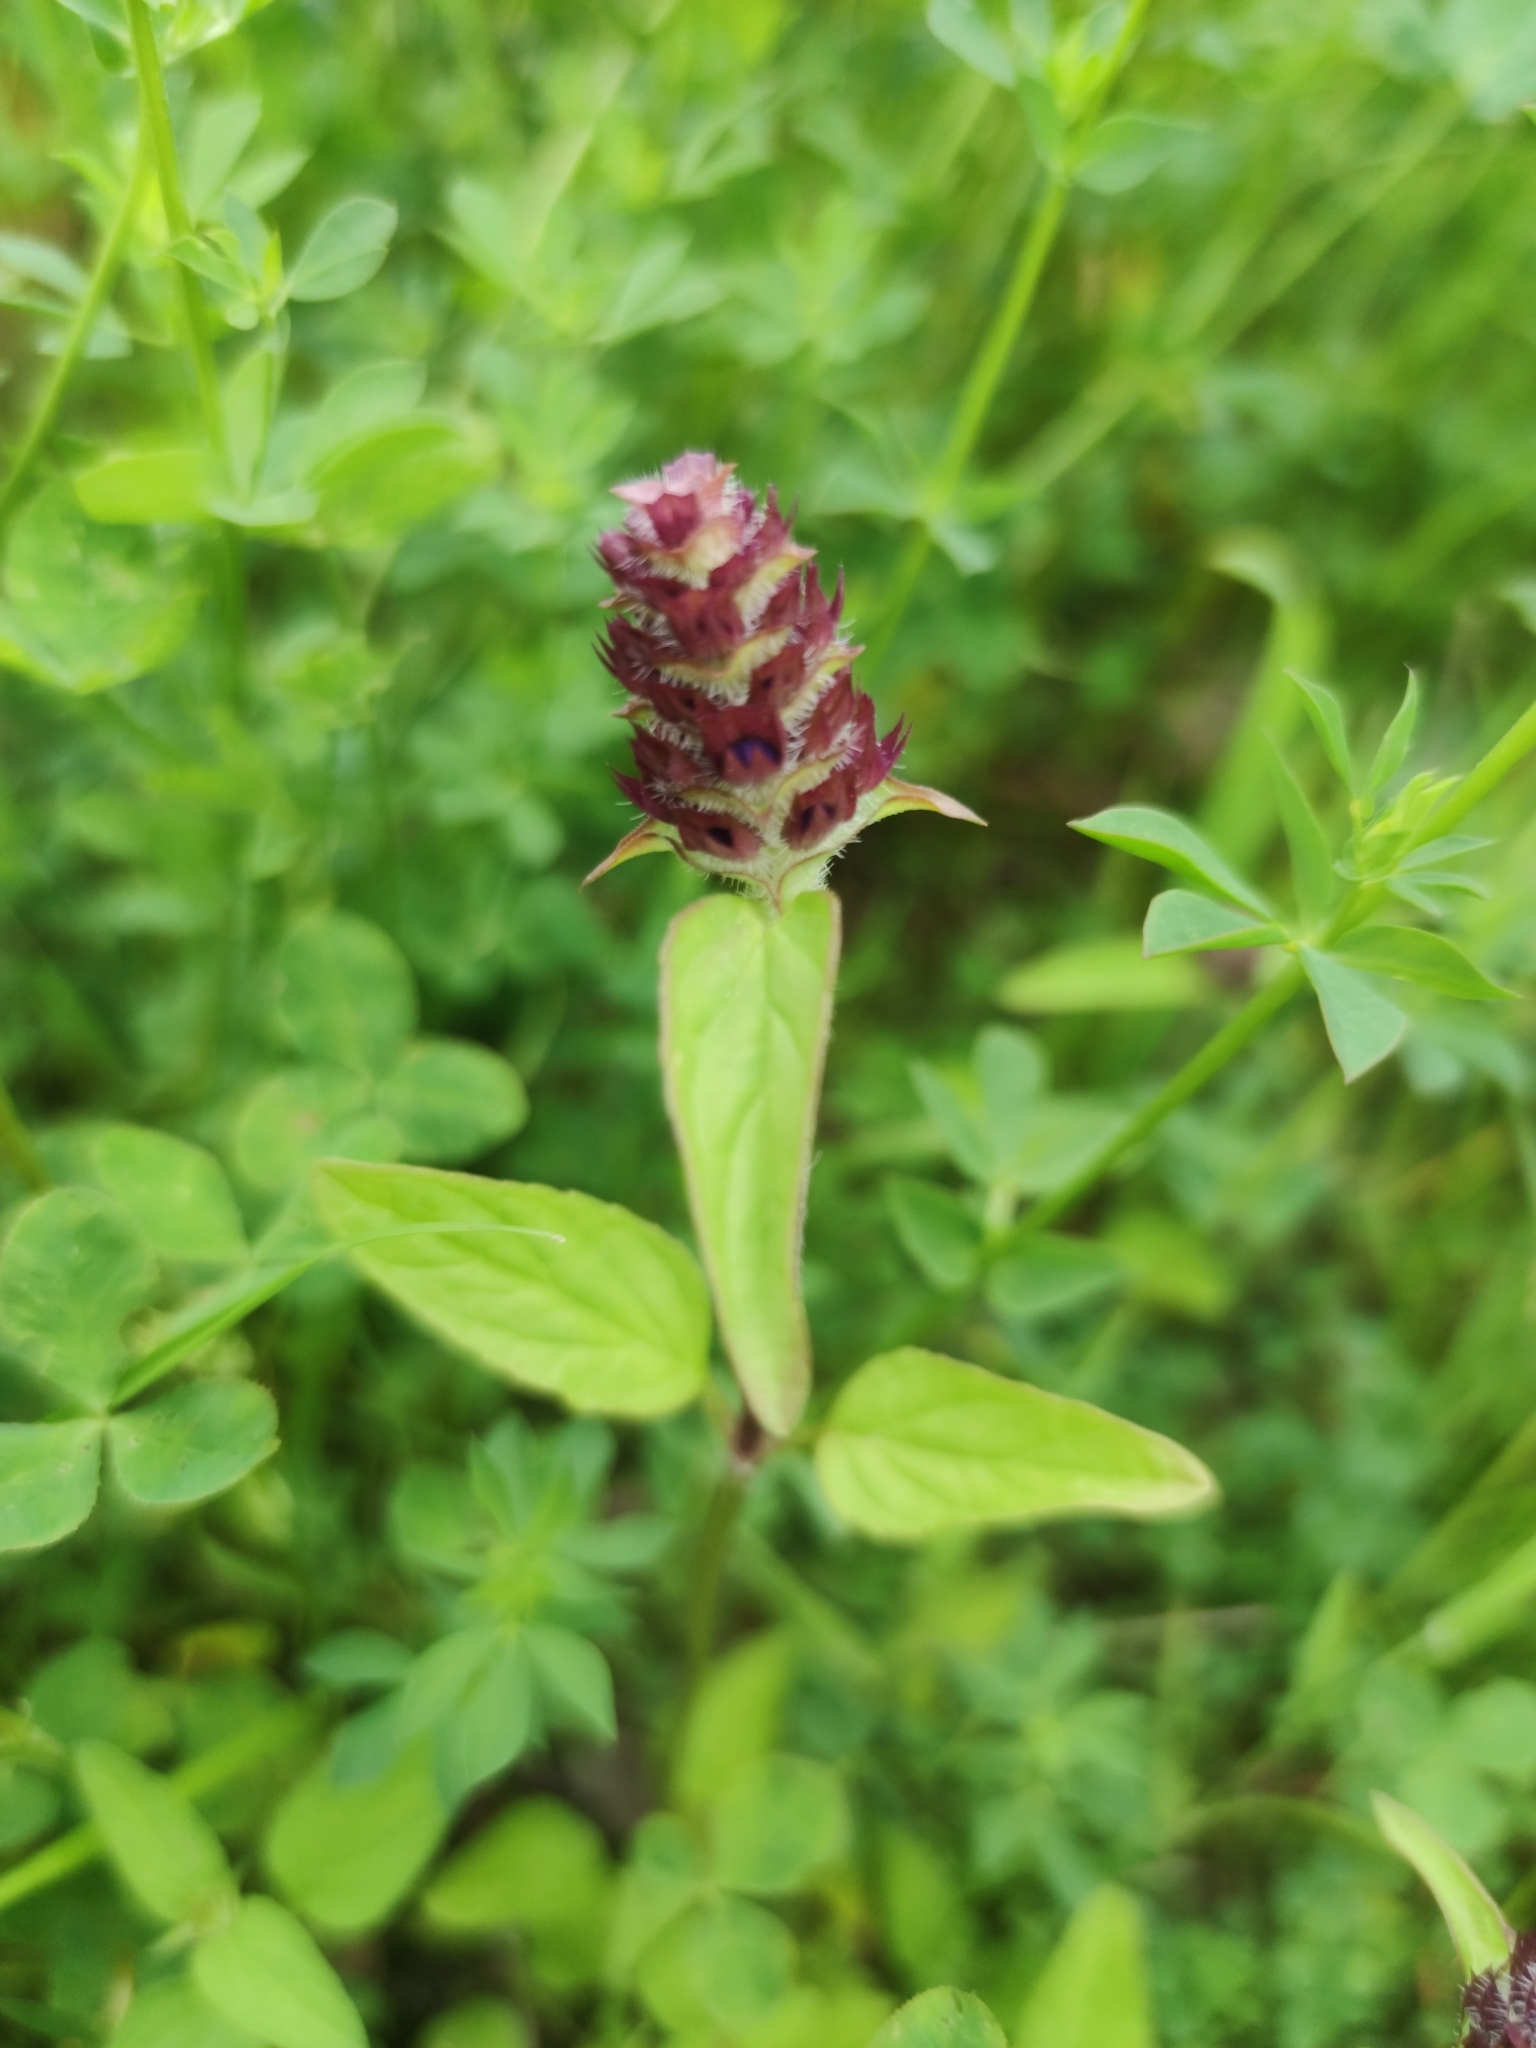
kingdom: Plantae
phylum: Tracheophyta
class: Magnoliopsida
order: Lamiales
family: Lamiaceae
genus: Prunella
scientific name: Prunella vulgaris
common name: Heal-all
